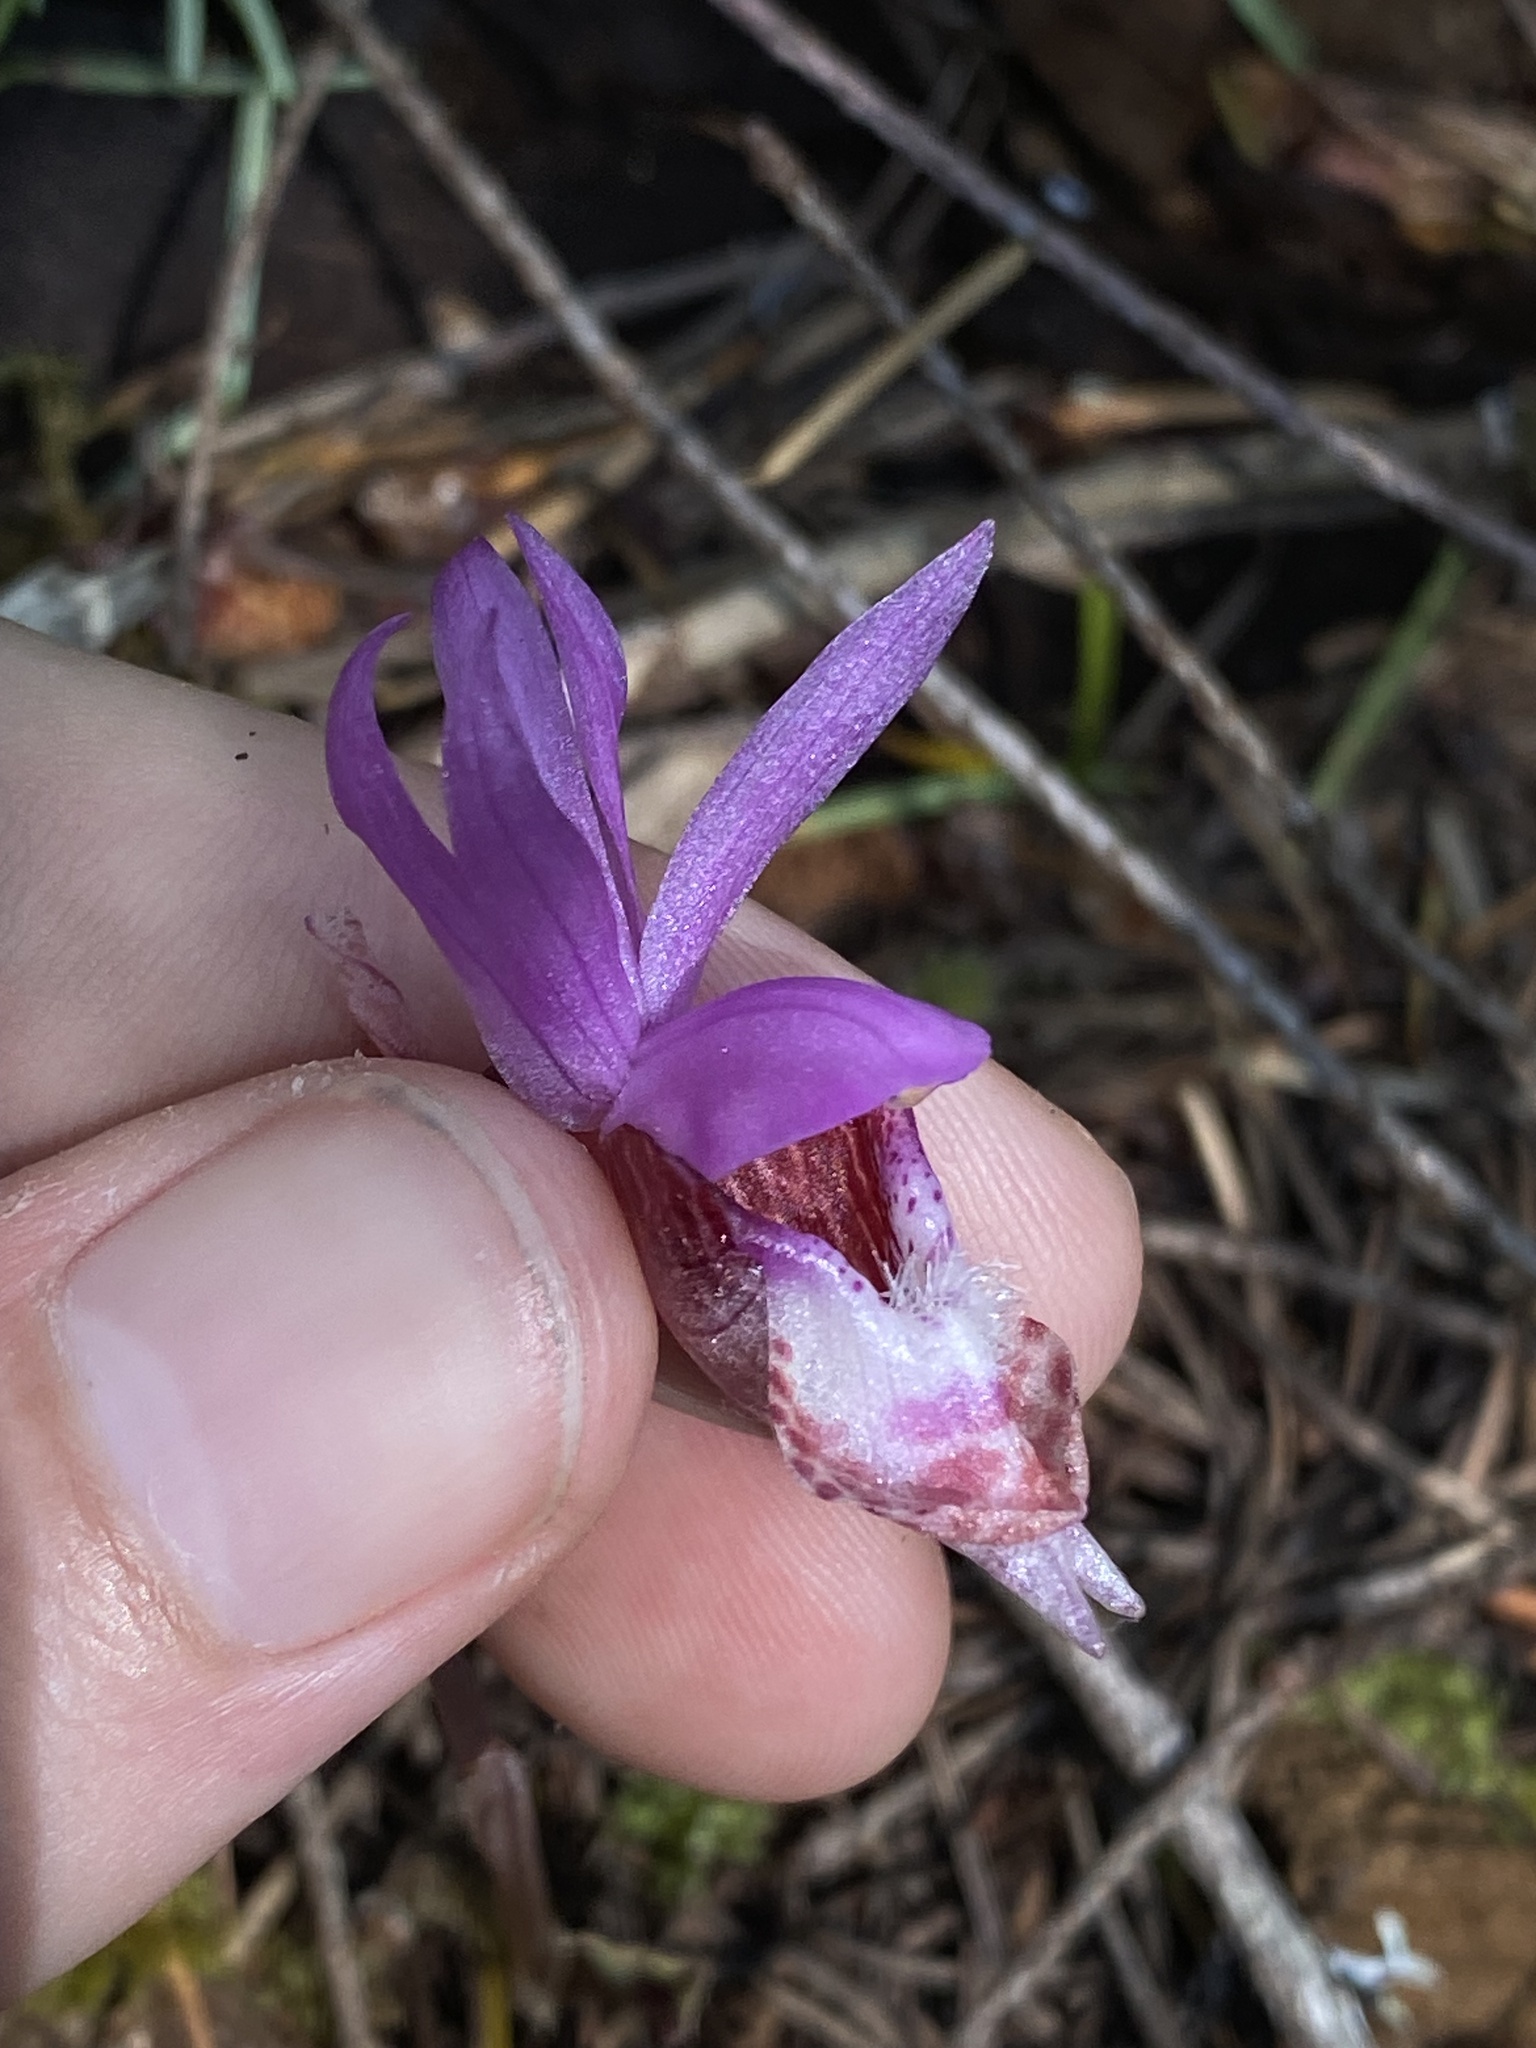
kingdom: Plantae
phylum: Tracheophyta
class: Liliopsida
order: Asparagales
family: Orchidaceae
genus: Calypso
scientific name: Calypso bulbosa
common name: Calypso
